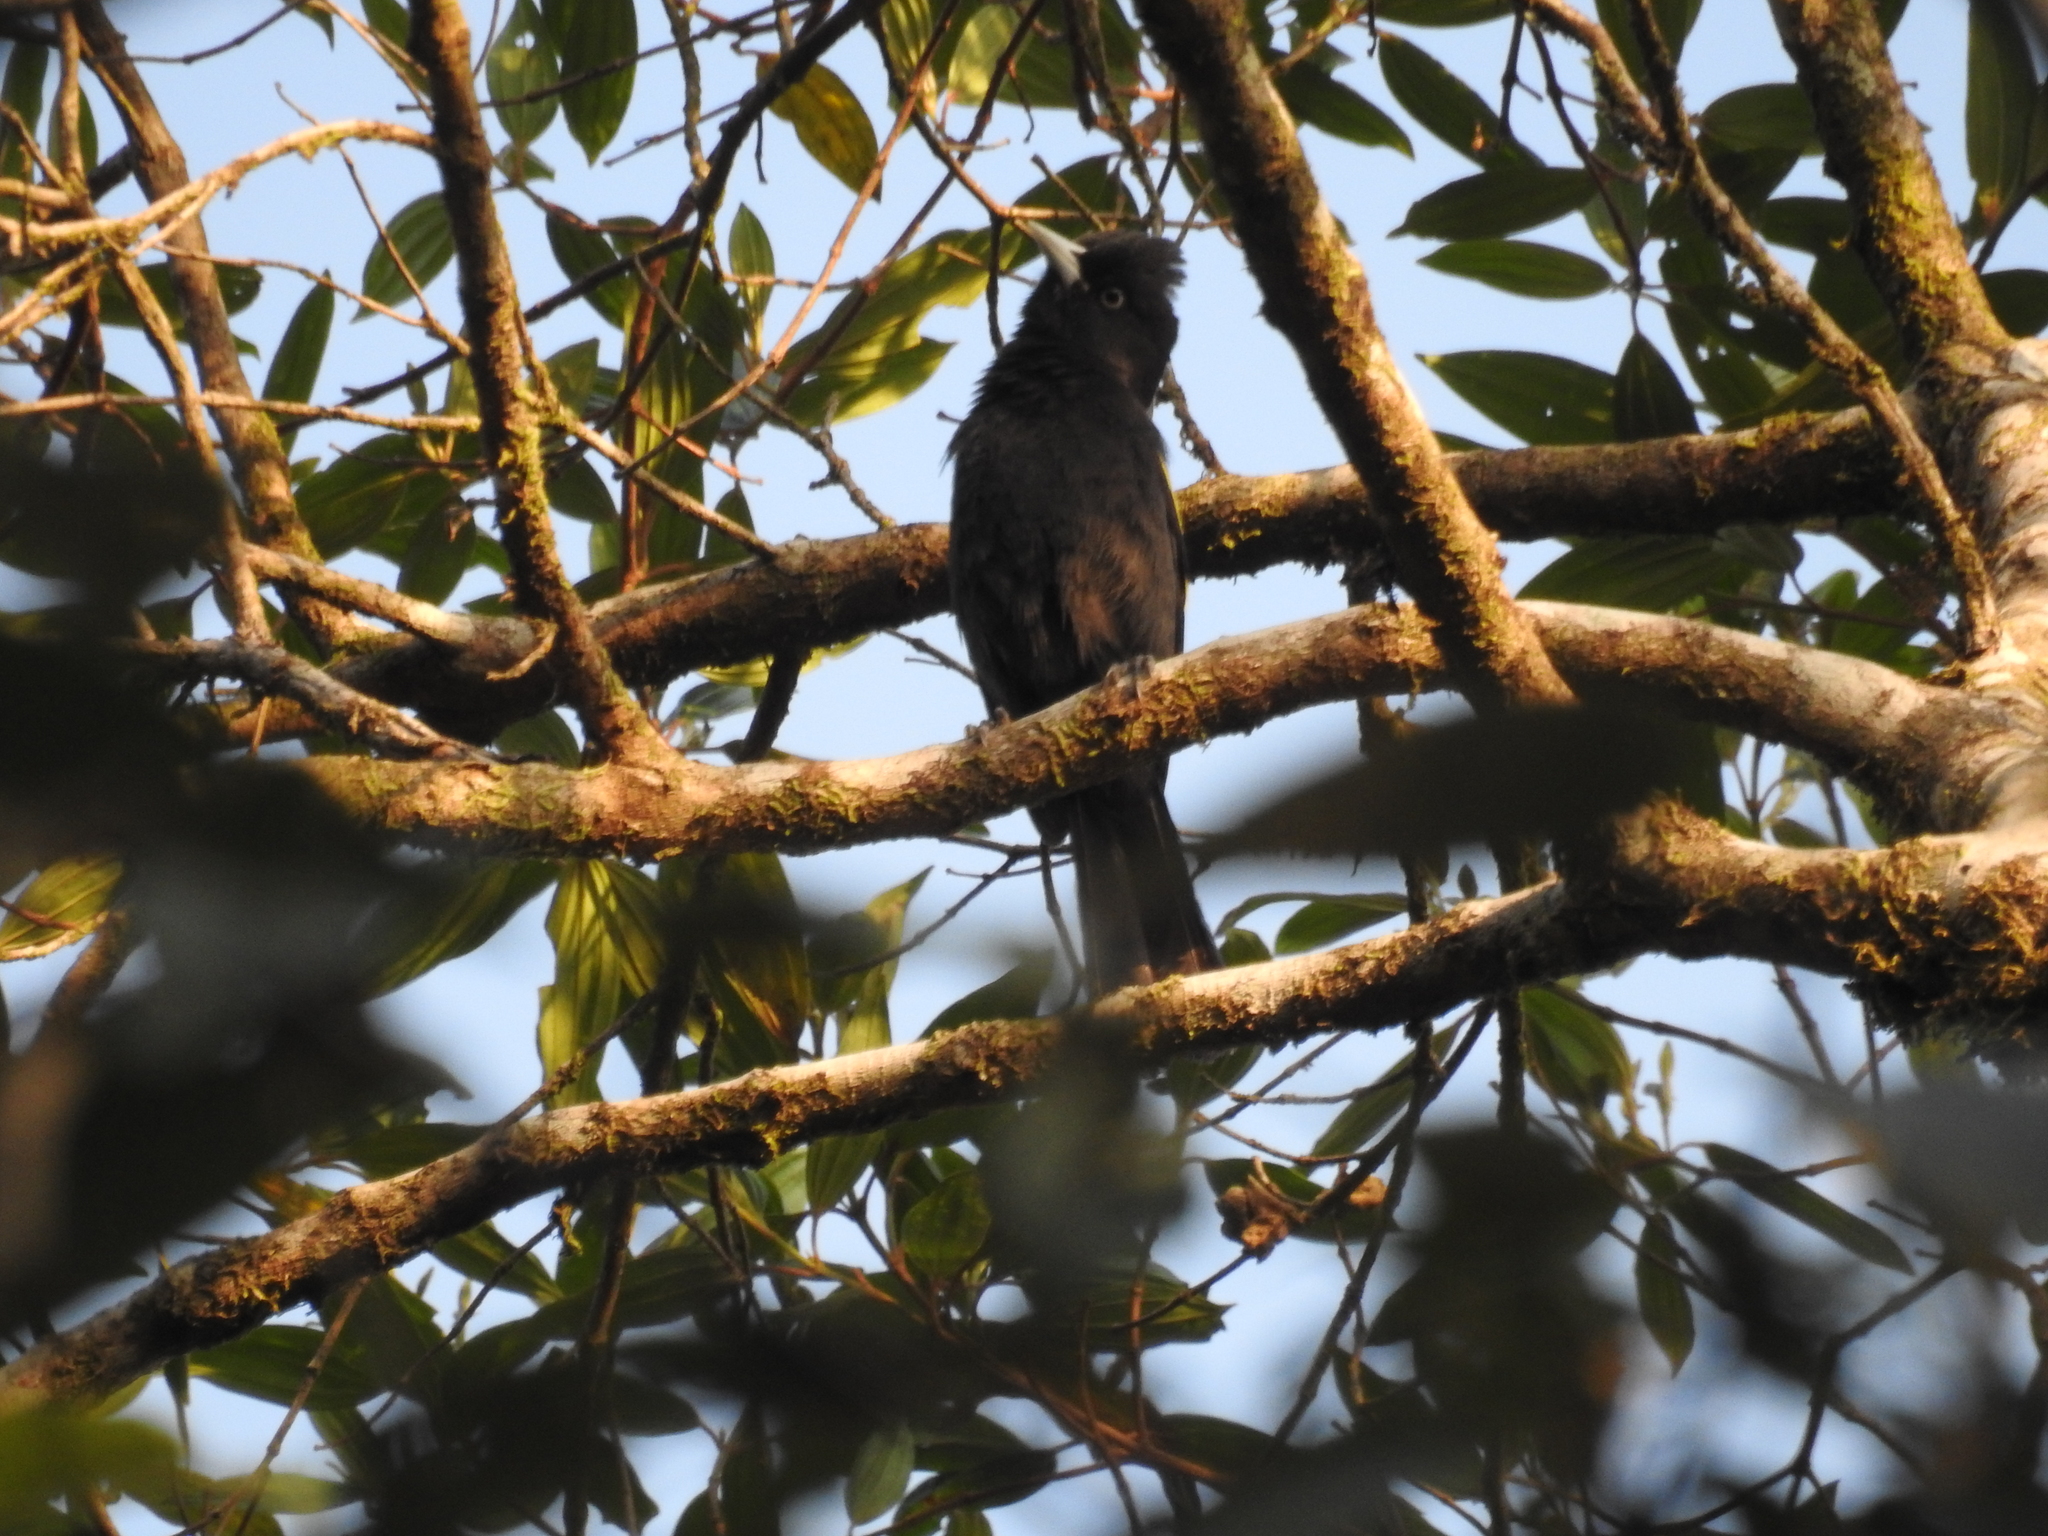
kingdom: Animalia
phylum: Chordata
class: Aves
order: Passeriformes
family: Icteridae
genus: Cacicus
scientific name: Cacicus chrysopterus
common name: Golden-winged cacique
